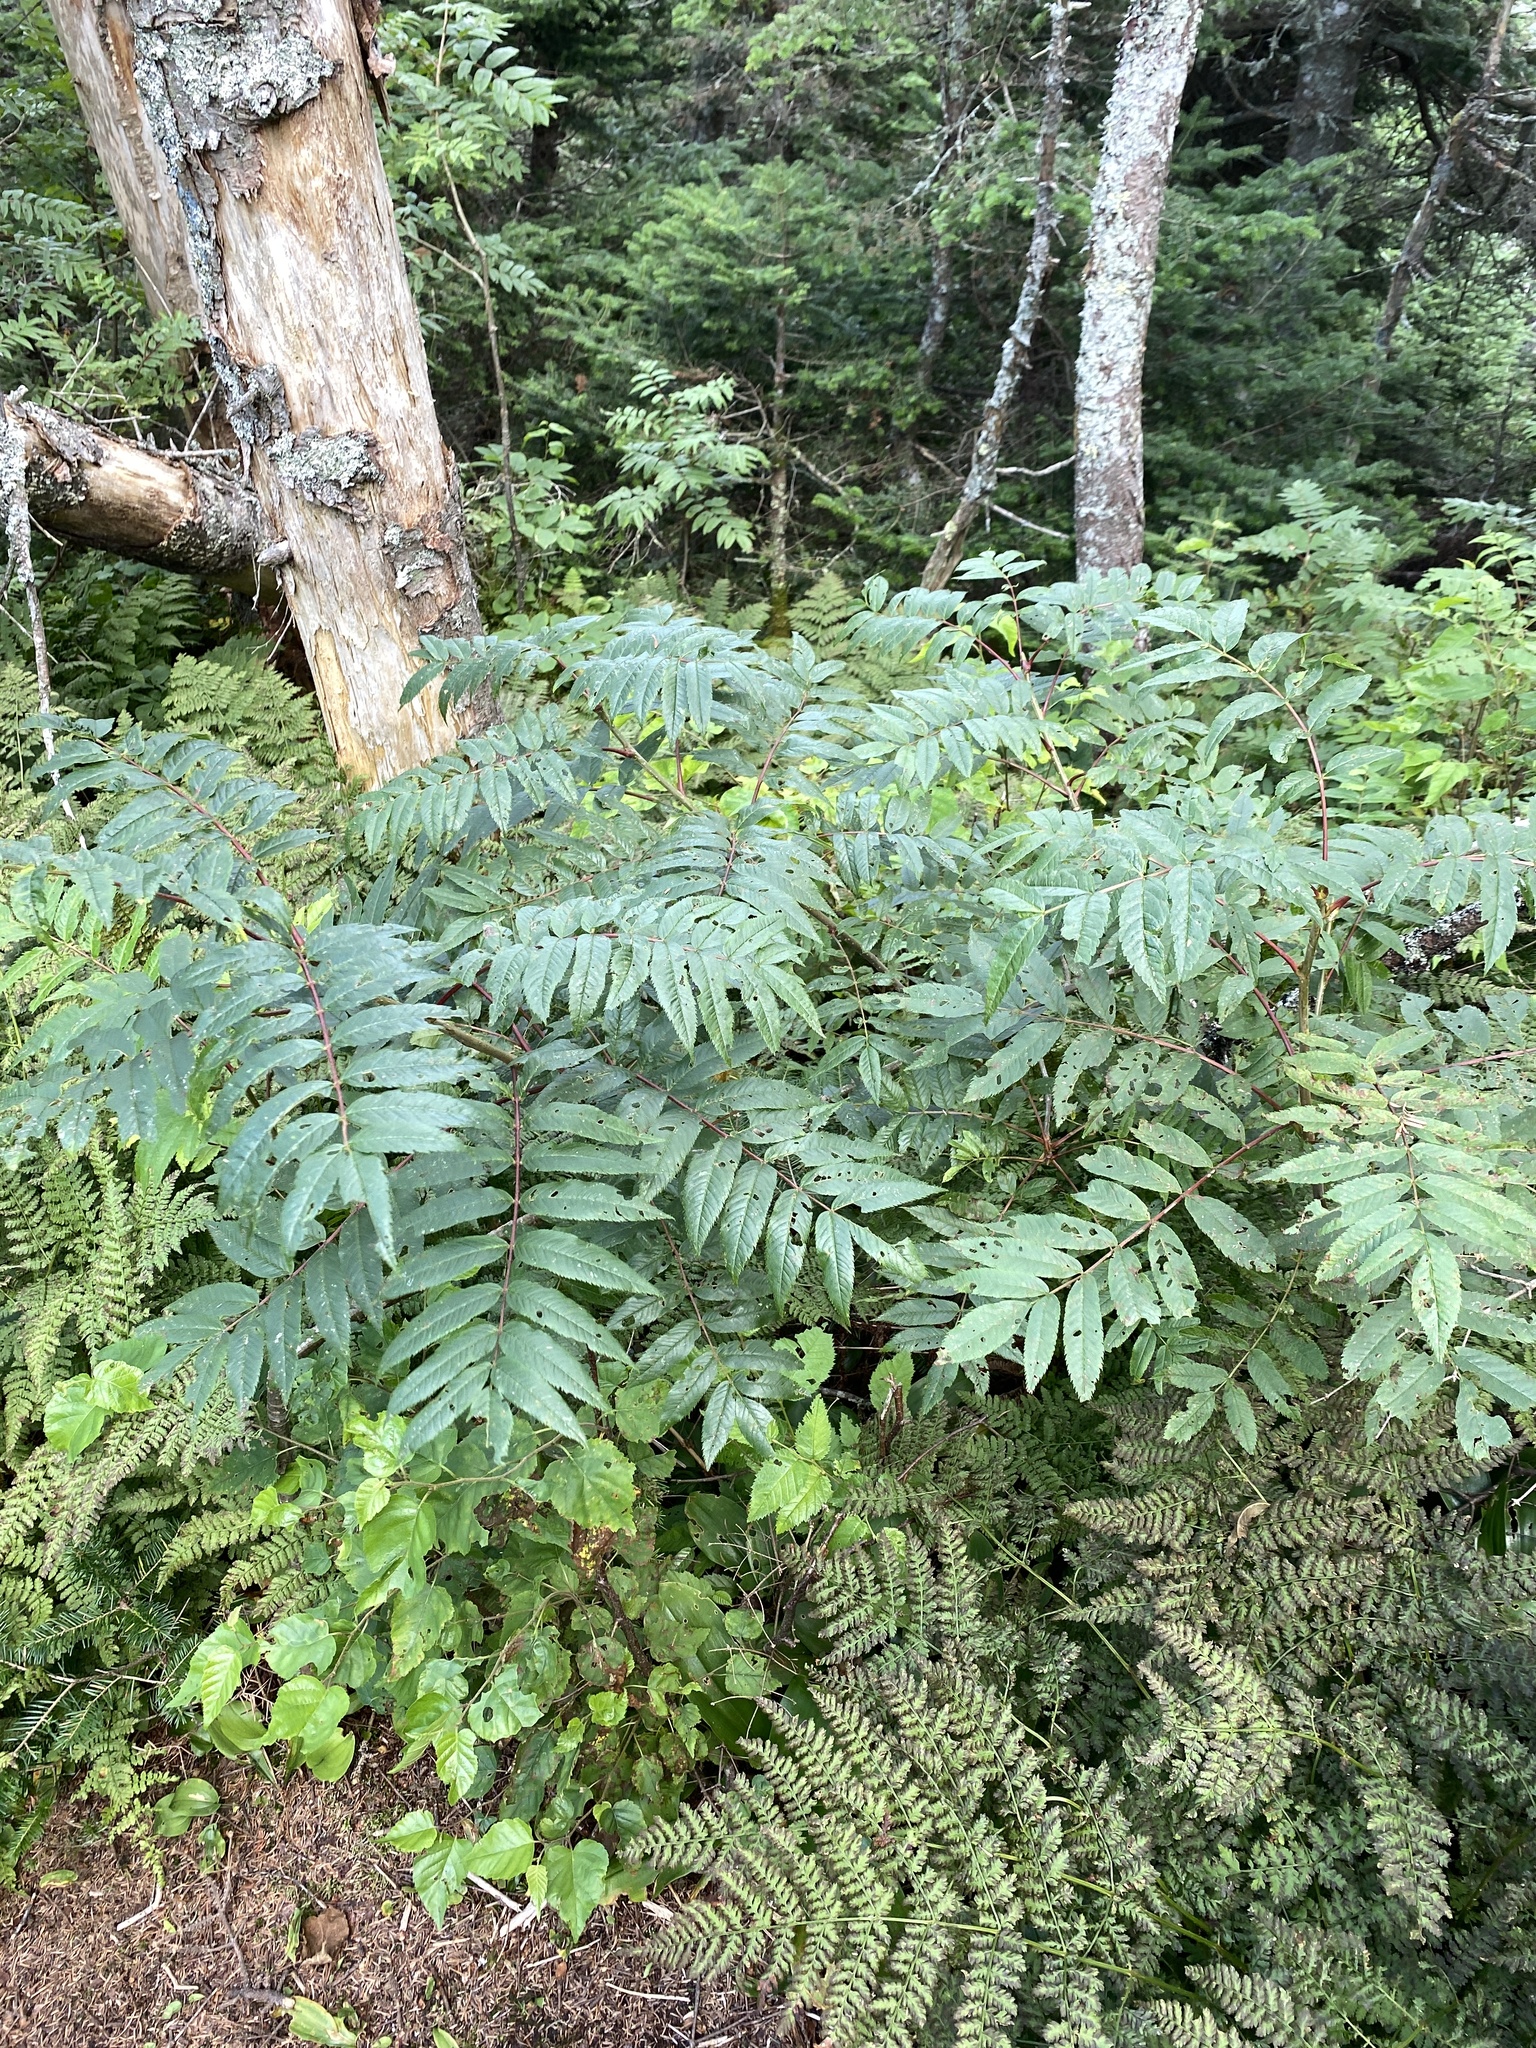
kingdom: Plantae
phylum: Tracheophyta
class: Magnoliopsida
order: Rosales
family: Rosaceae
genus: Sorbus
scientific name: Sorbus americana
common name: American mountain-ash
